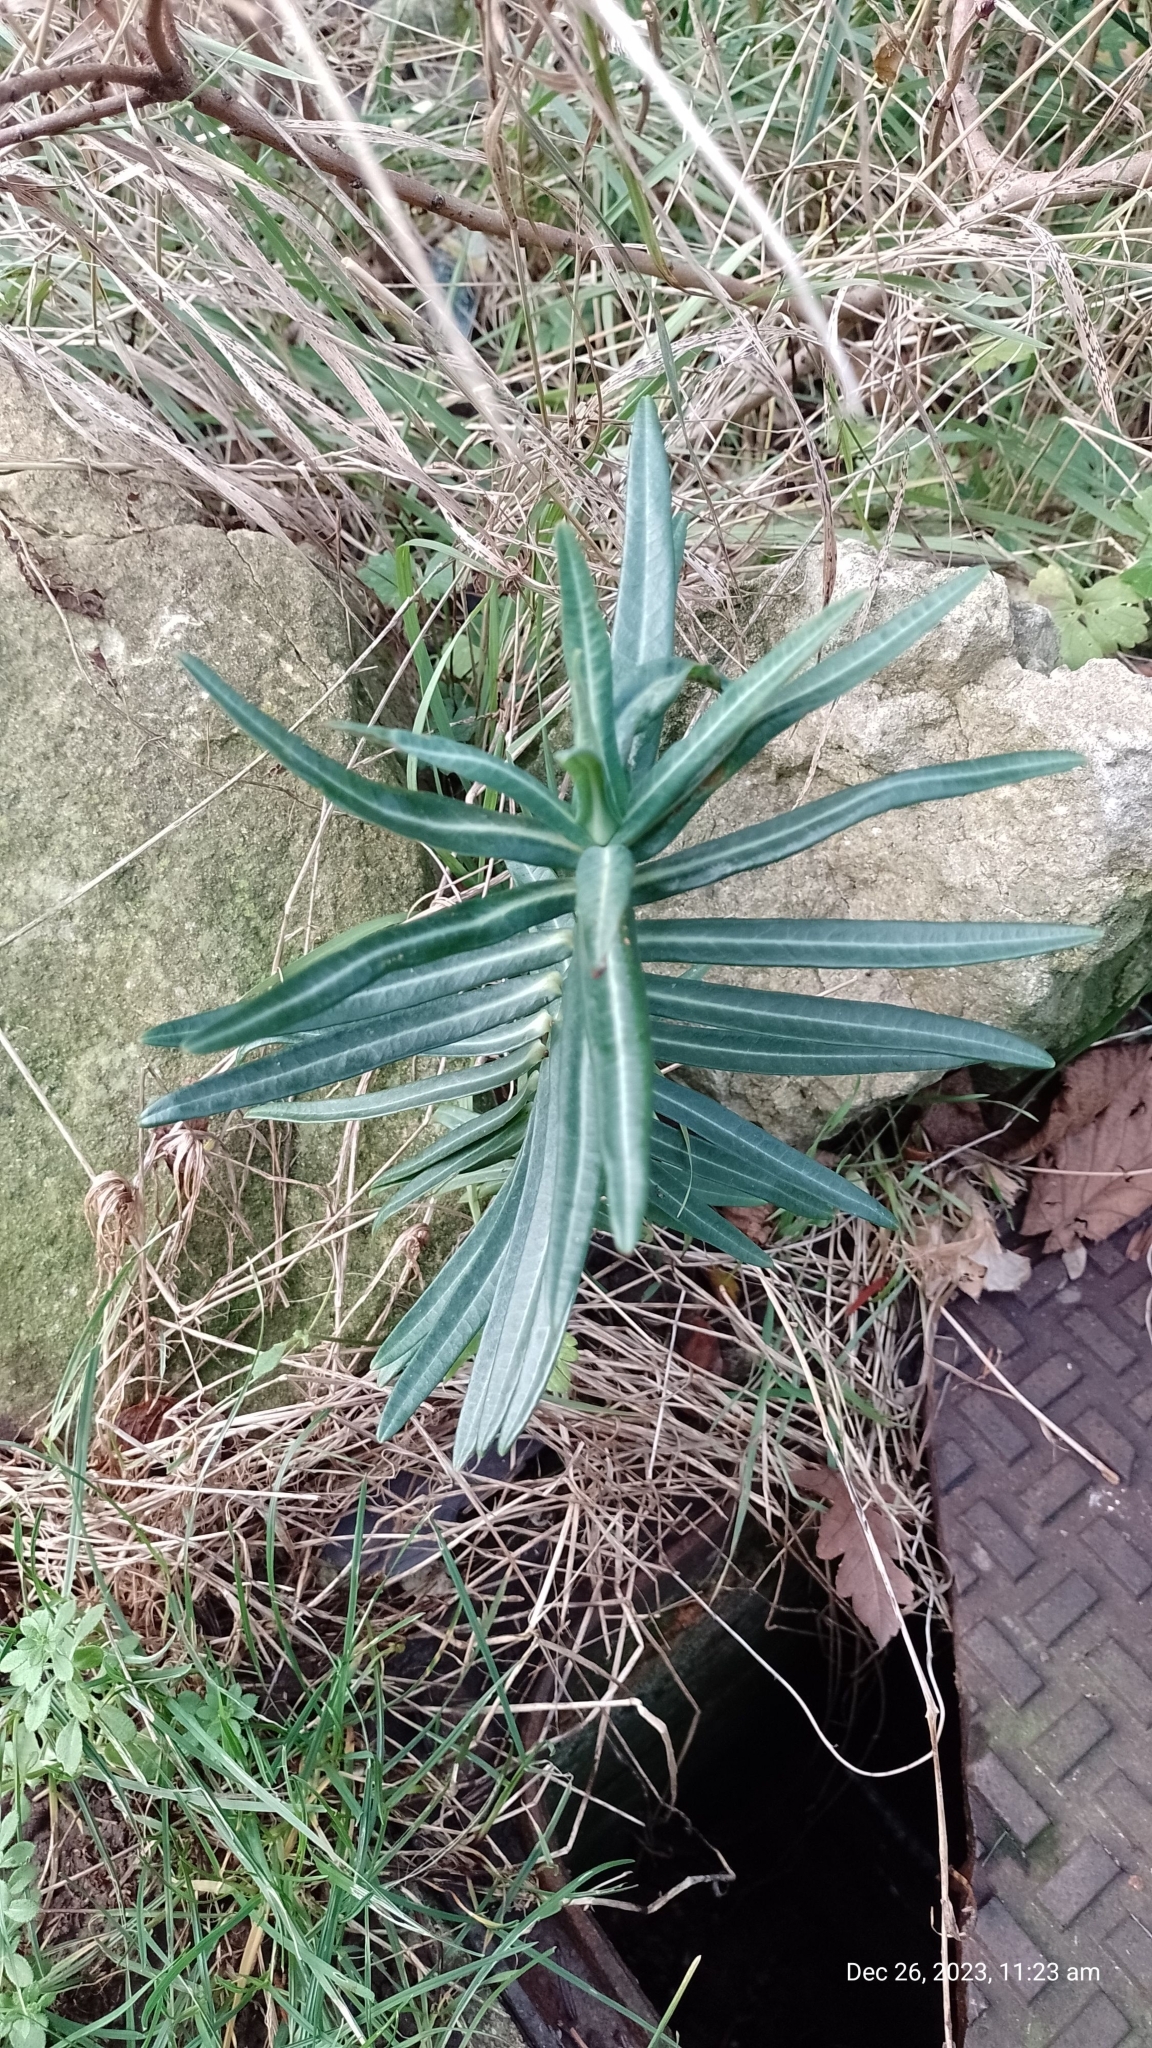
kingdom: Plantae
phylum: Tracheophyta
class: Magnoliopsida
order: Malpighiales
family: Euphorbiaceae
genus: Euphorbia
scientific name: Euphorbia lathyris
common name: Caper spurge
